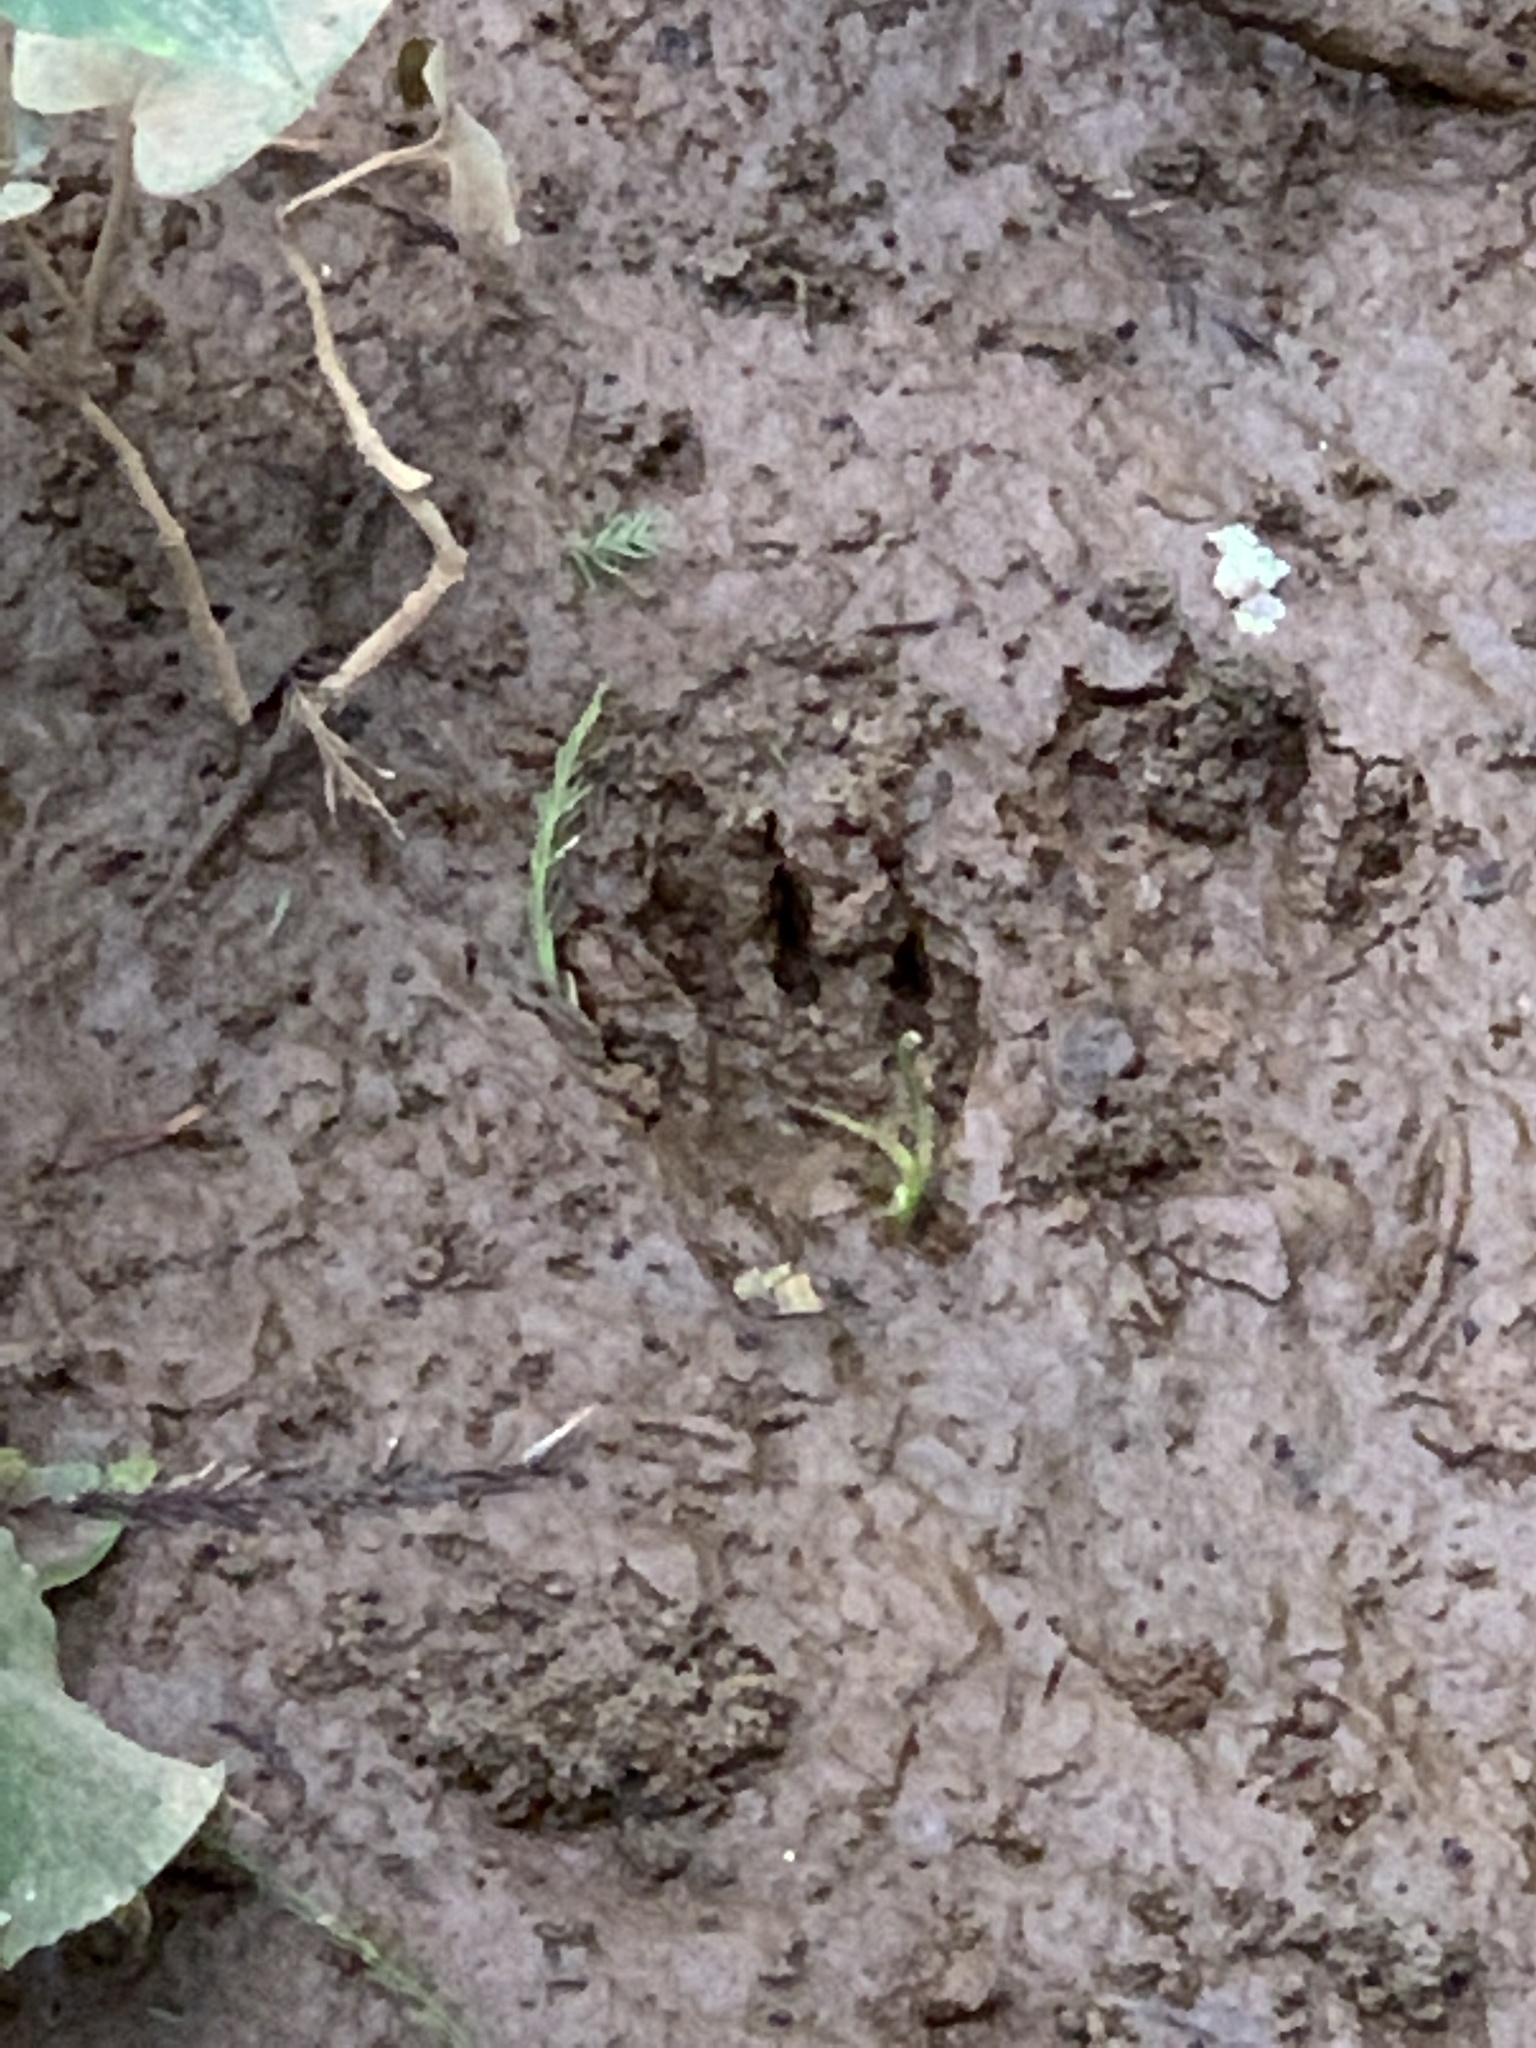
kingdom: Animalia
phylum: Chordata
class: Mammalia
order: Carnivora
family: Procyonidae
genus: Procyon
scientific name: Procyon lotor
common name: Raccoon
